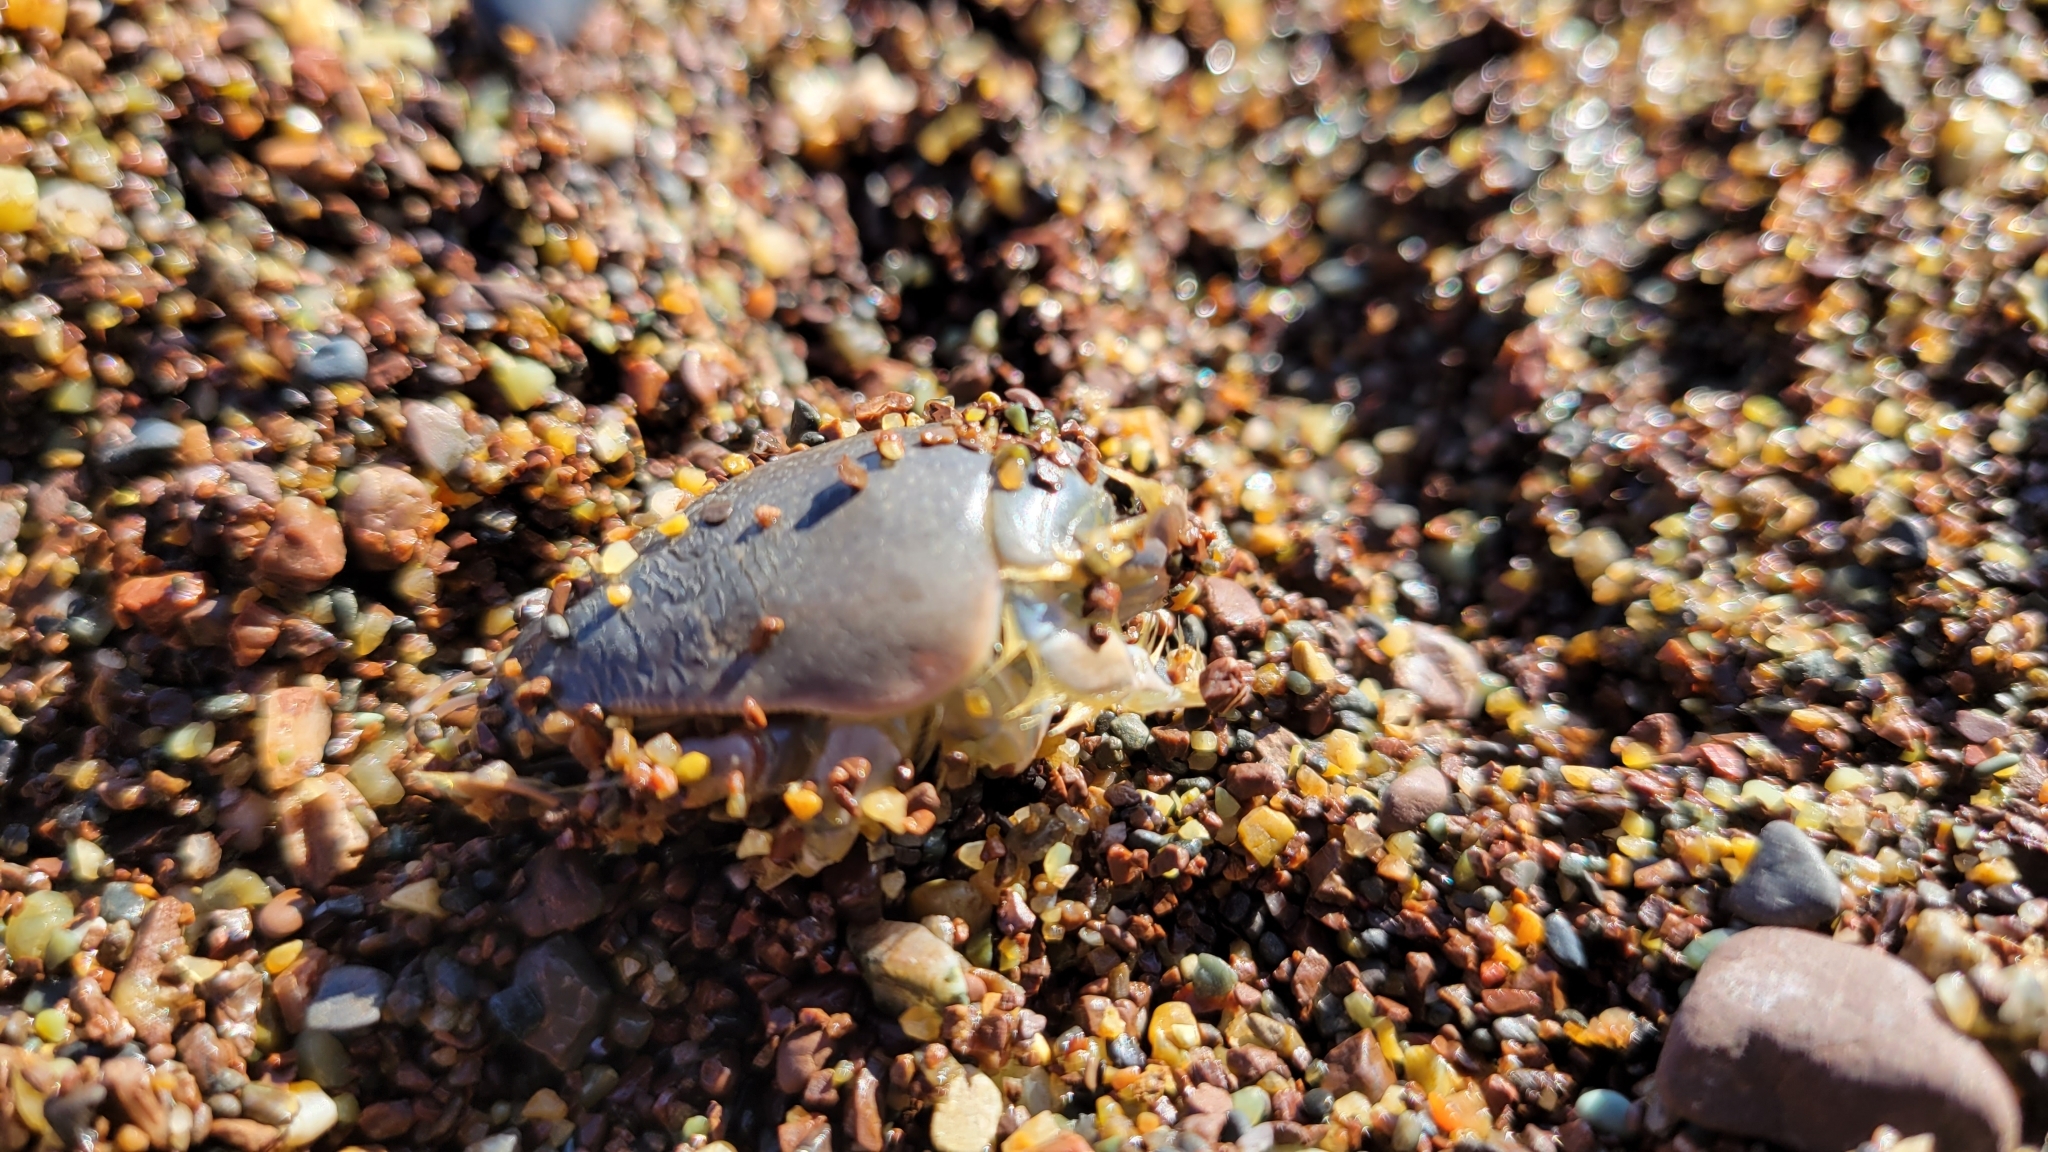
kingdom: Animalia
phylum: Arthropoda
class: Malacostraca
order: Decapoda
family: Hippidae
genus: Emerita
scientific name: Emerita analoga
